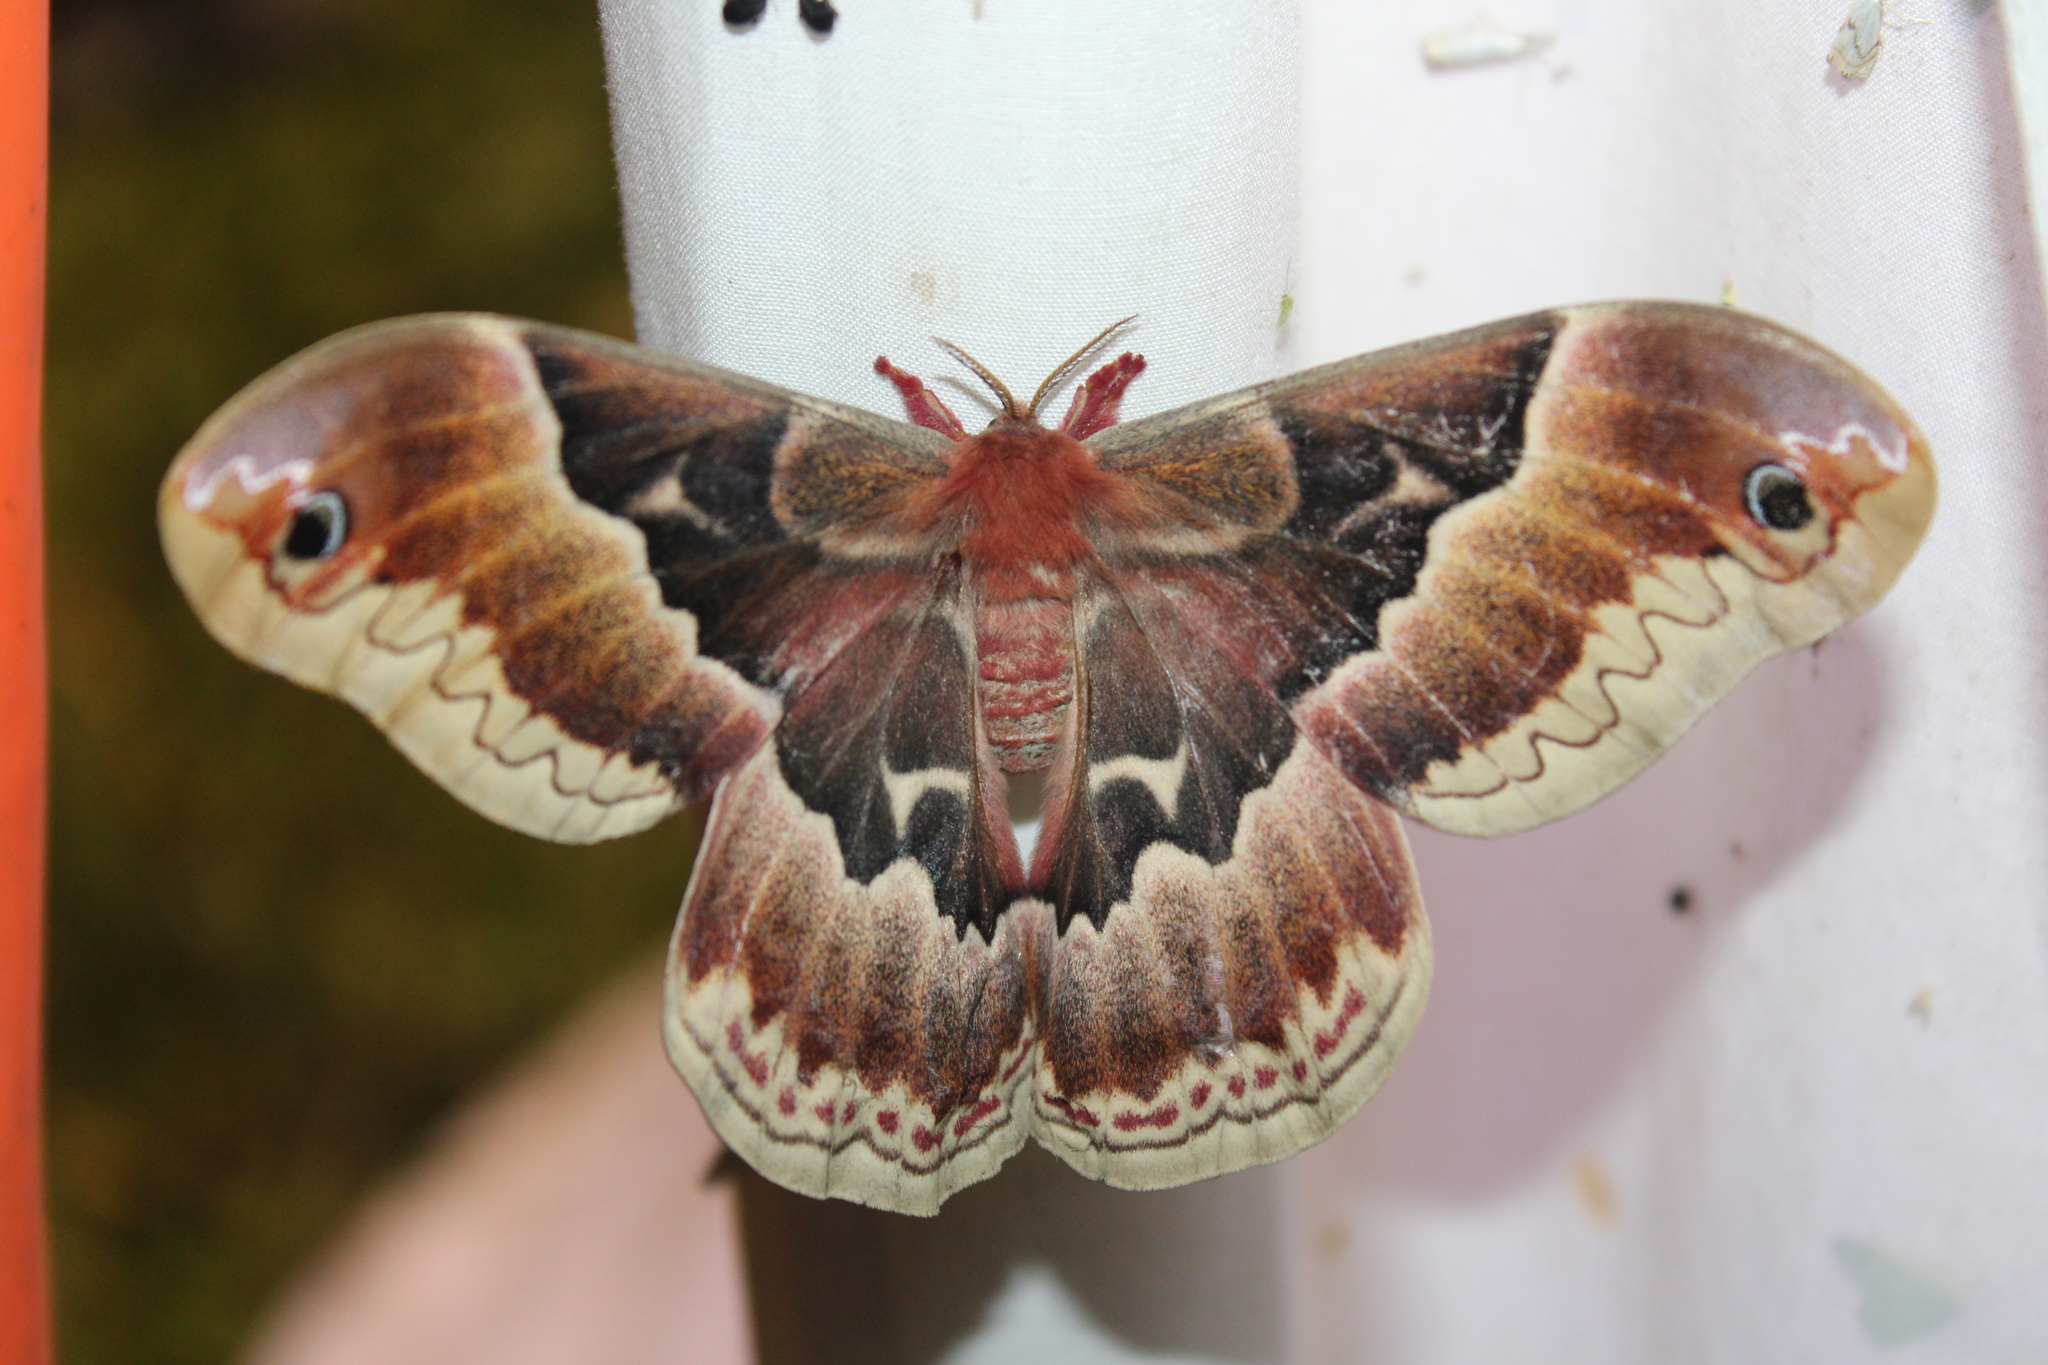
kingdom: Animalia
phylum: Arthropoda
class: Insecta
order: Lepidoptera
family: Saturniidae
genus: Callosamia
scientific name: Callosamia promethea
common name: Promethea silkmoth
